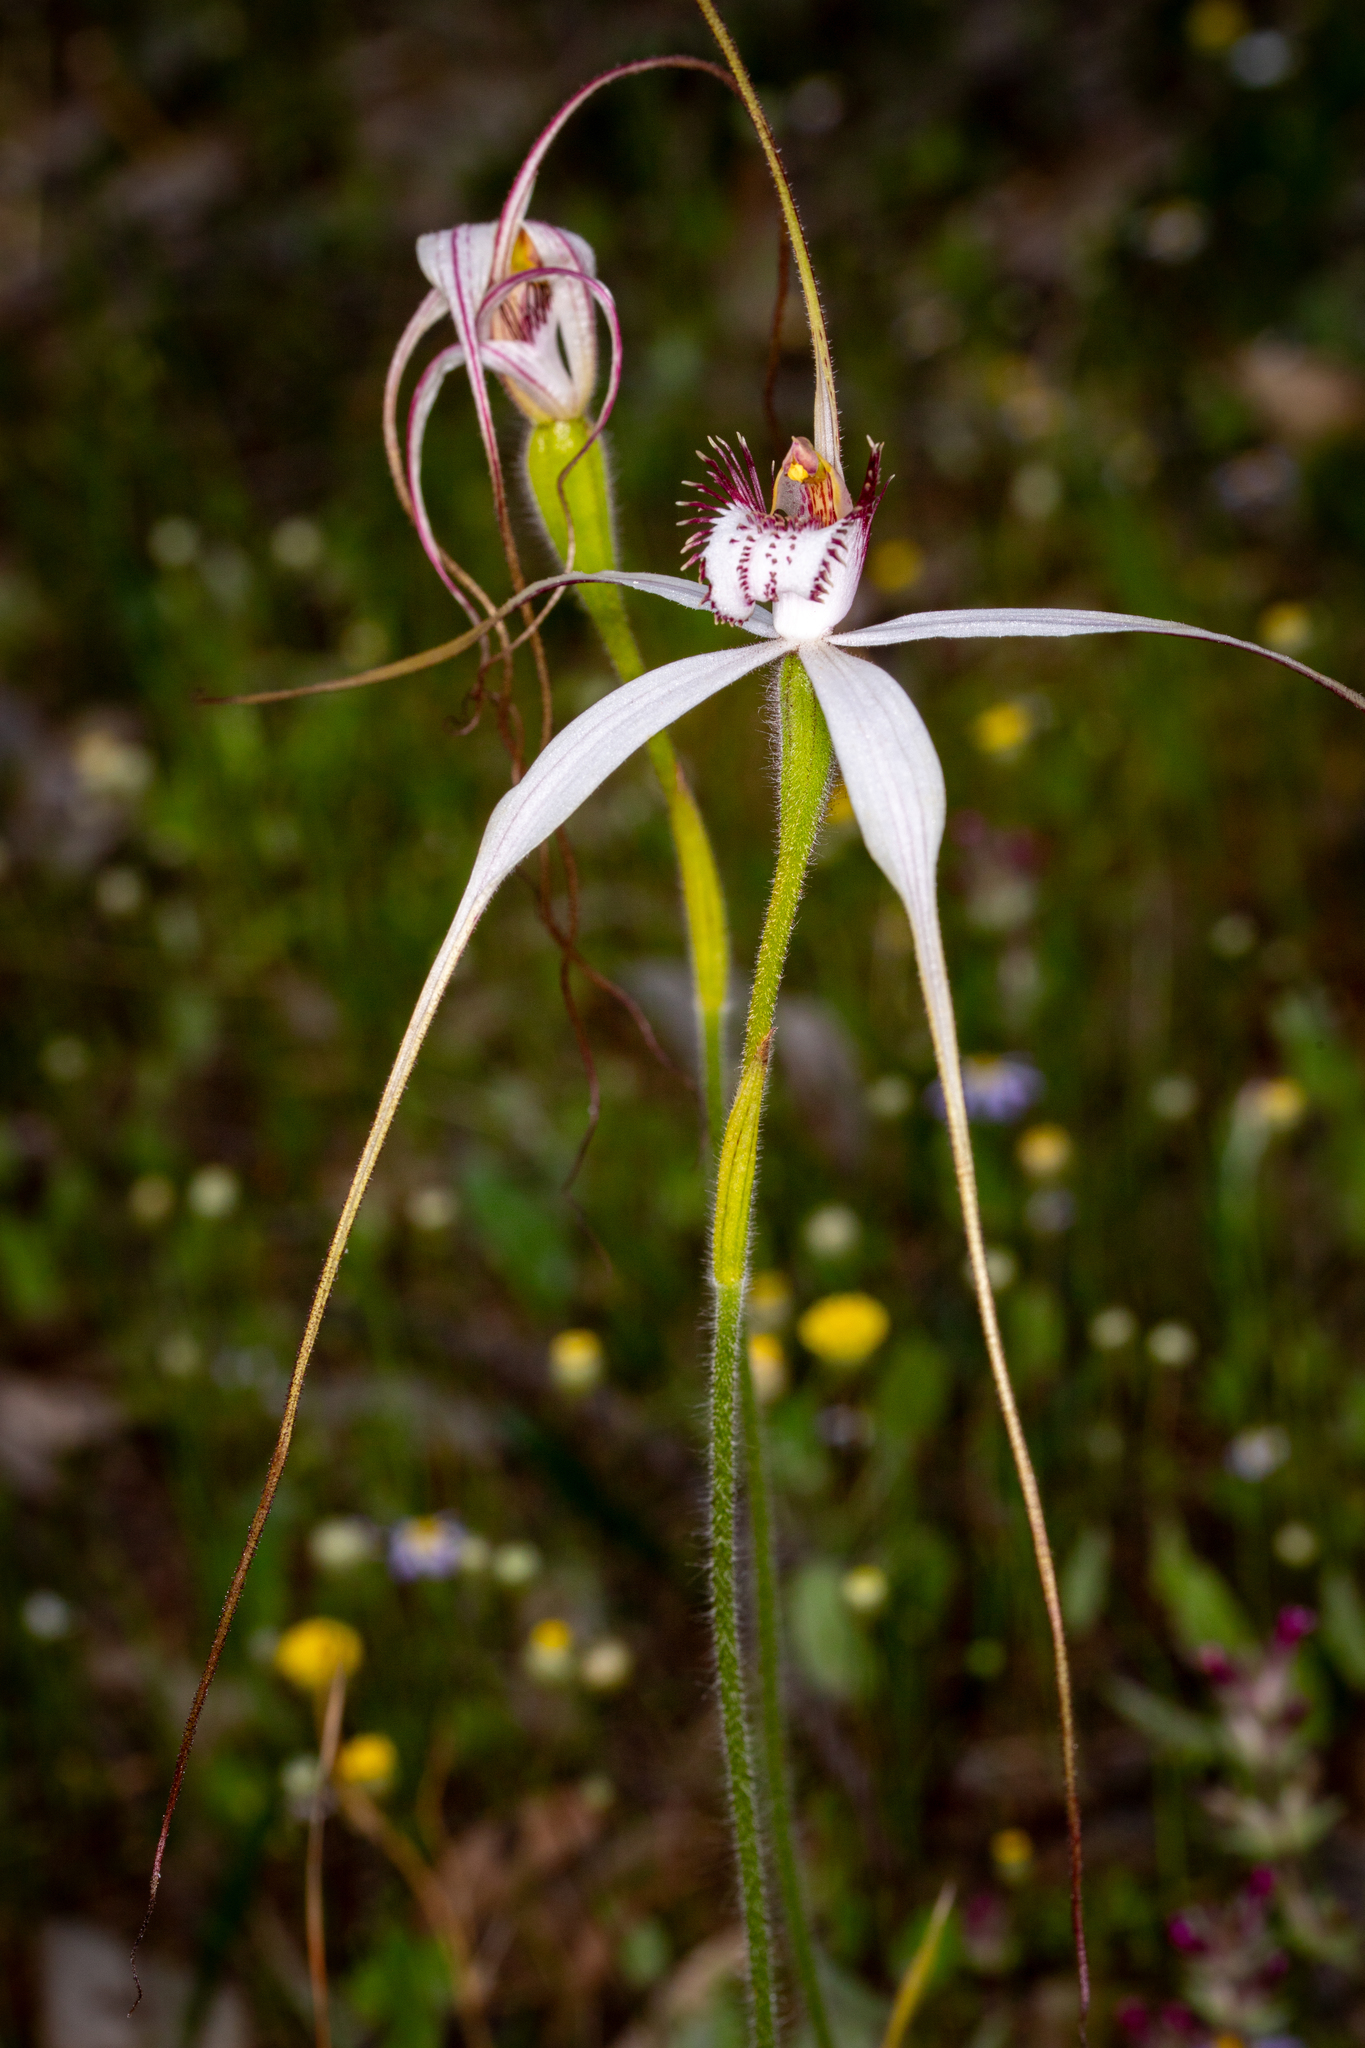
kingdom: Plantae
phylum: Tracheophyta
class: Liliopsida
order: Asparagales
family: Orchidaceae
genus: Caladenia
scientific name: Caladenia longicauda
